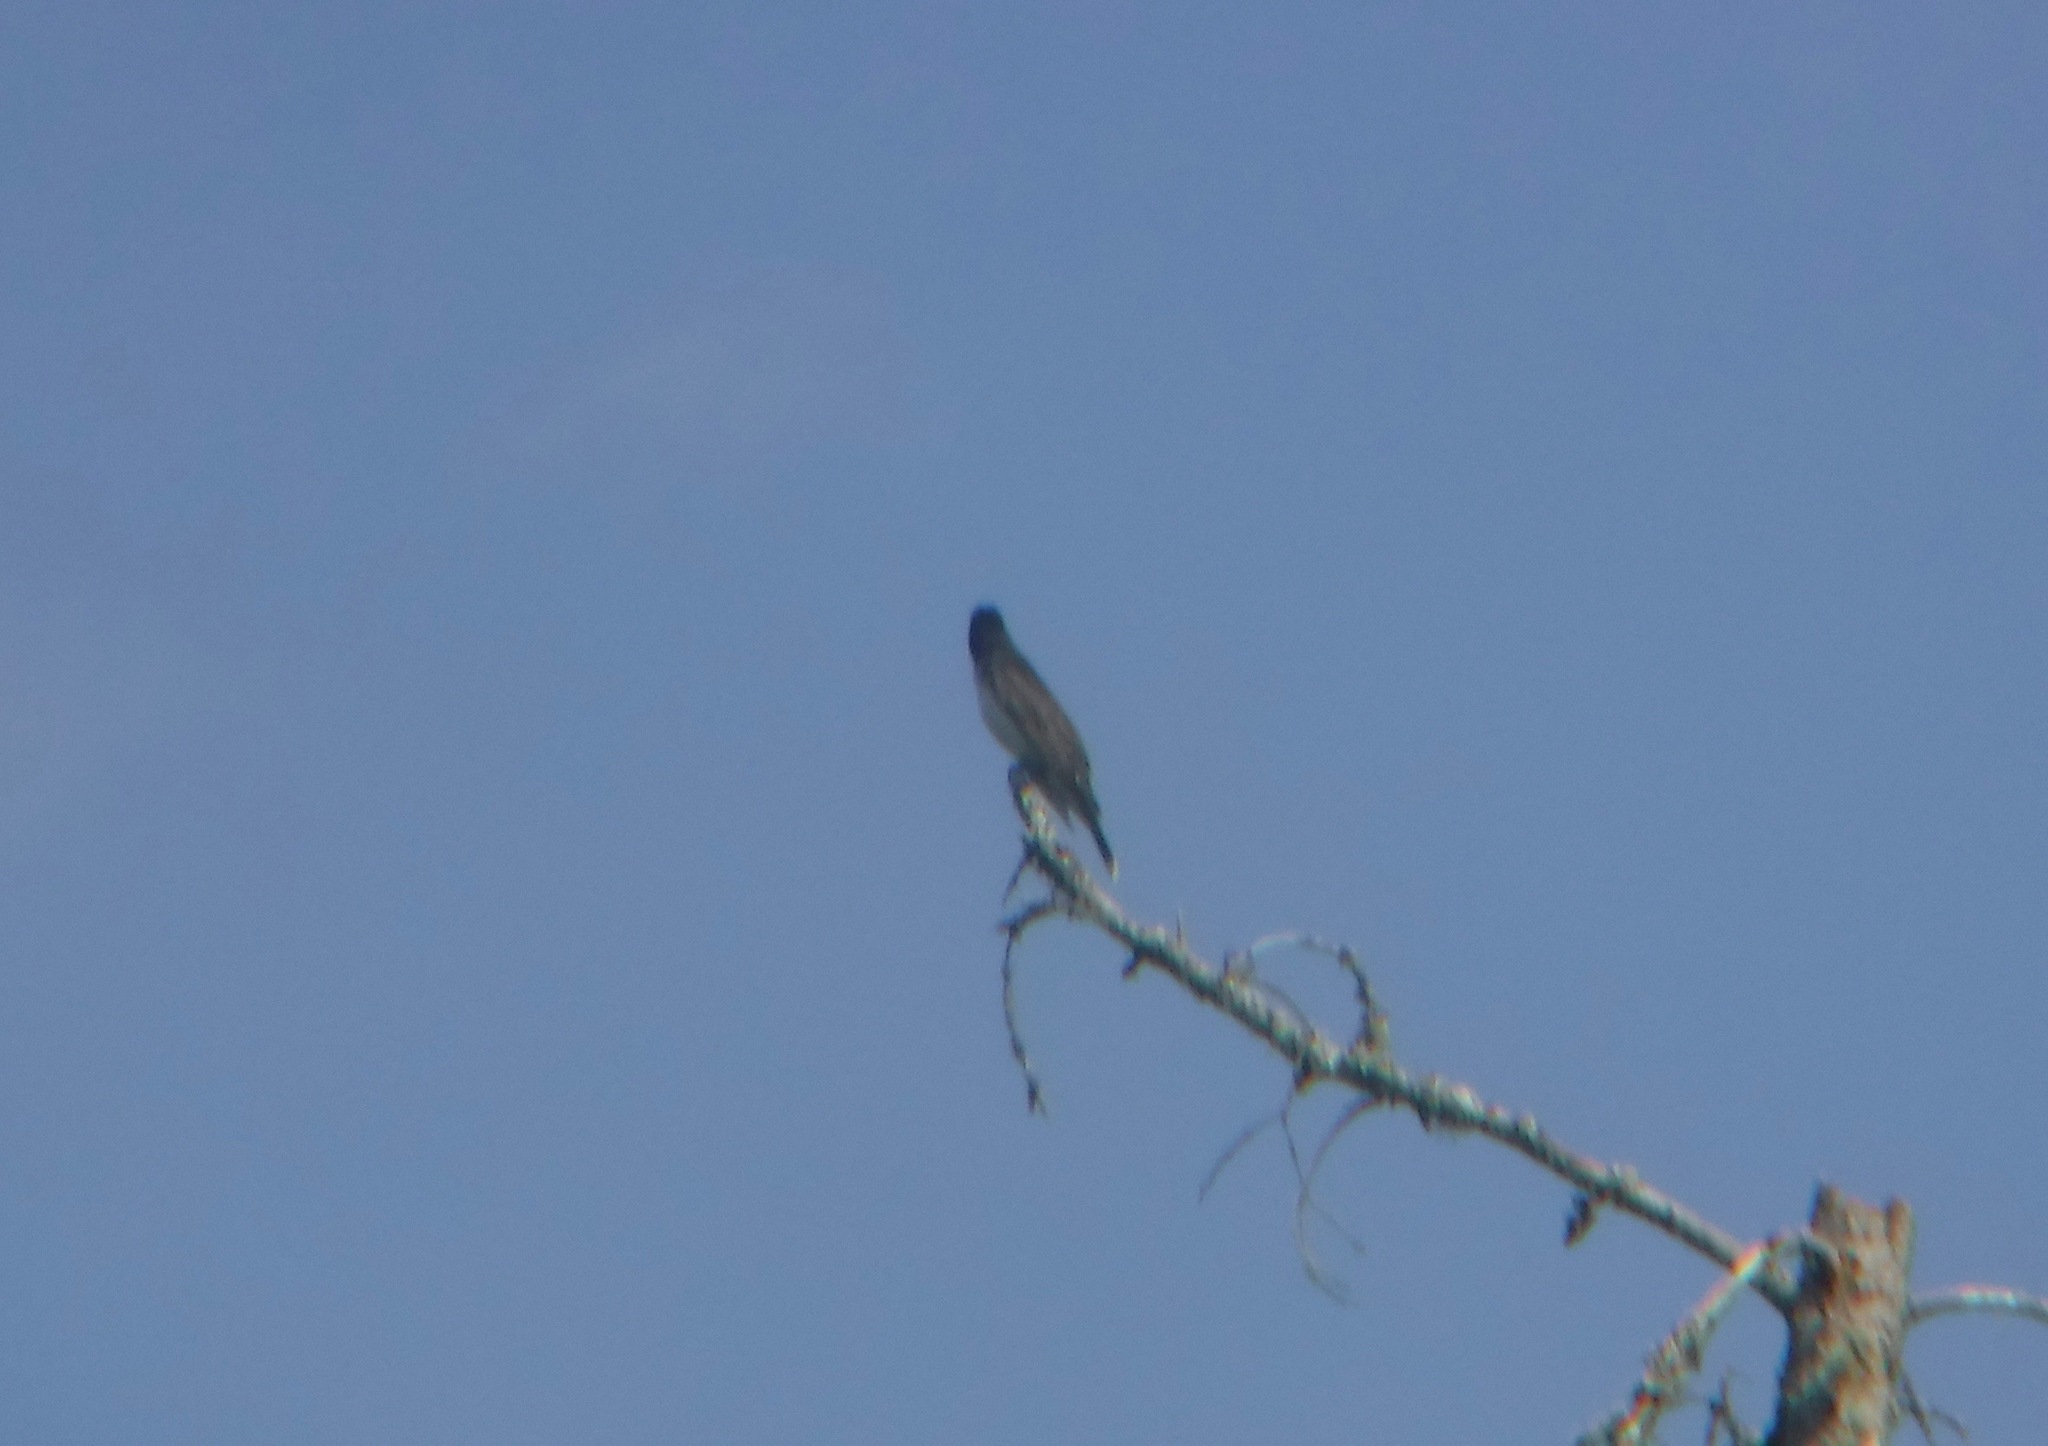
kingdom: Animalia
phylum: Chordata
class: Aves
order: Passeriformes
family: Tyrannidae
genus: Tyrannus
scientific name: Tyrannus tyrannus
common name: Eastern kingbird
